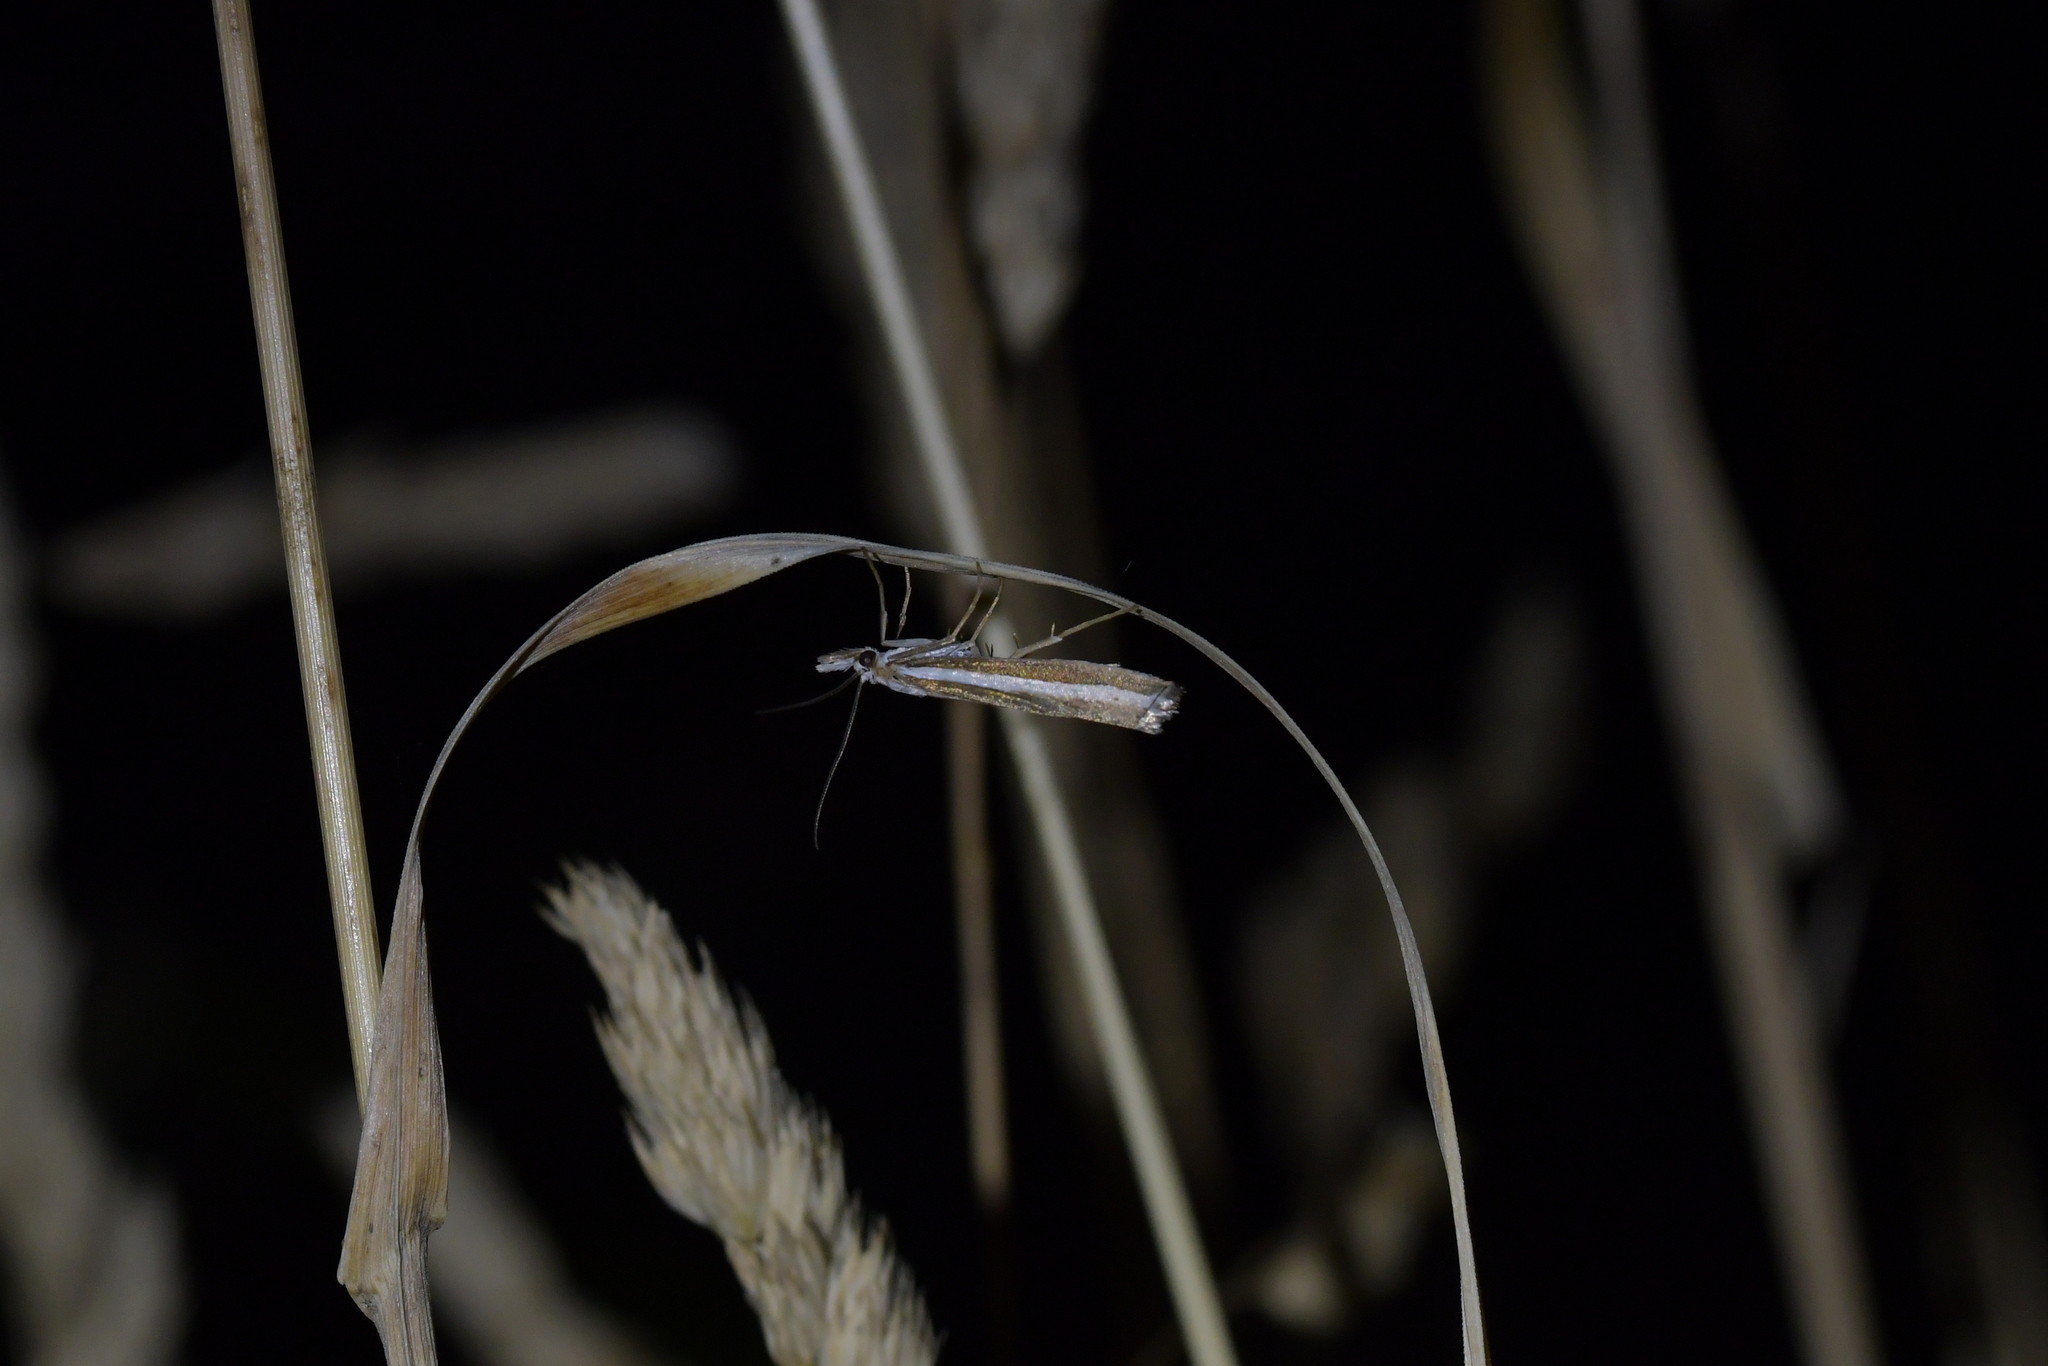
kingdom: Animalia
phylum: Arthropoda
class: Insecta
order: Lepidoptera
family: Crambidae
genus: Orocrambus
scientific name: Orocrambus vittellus
